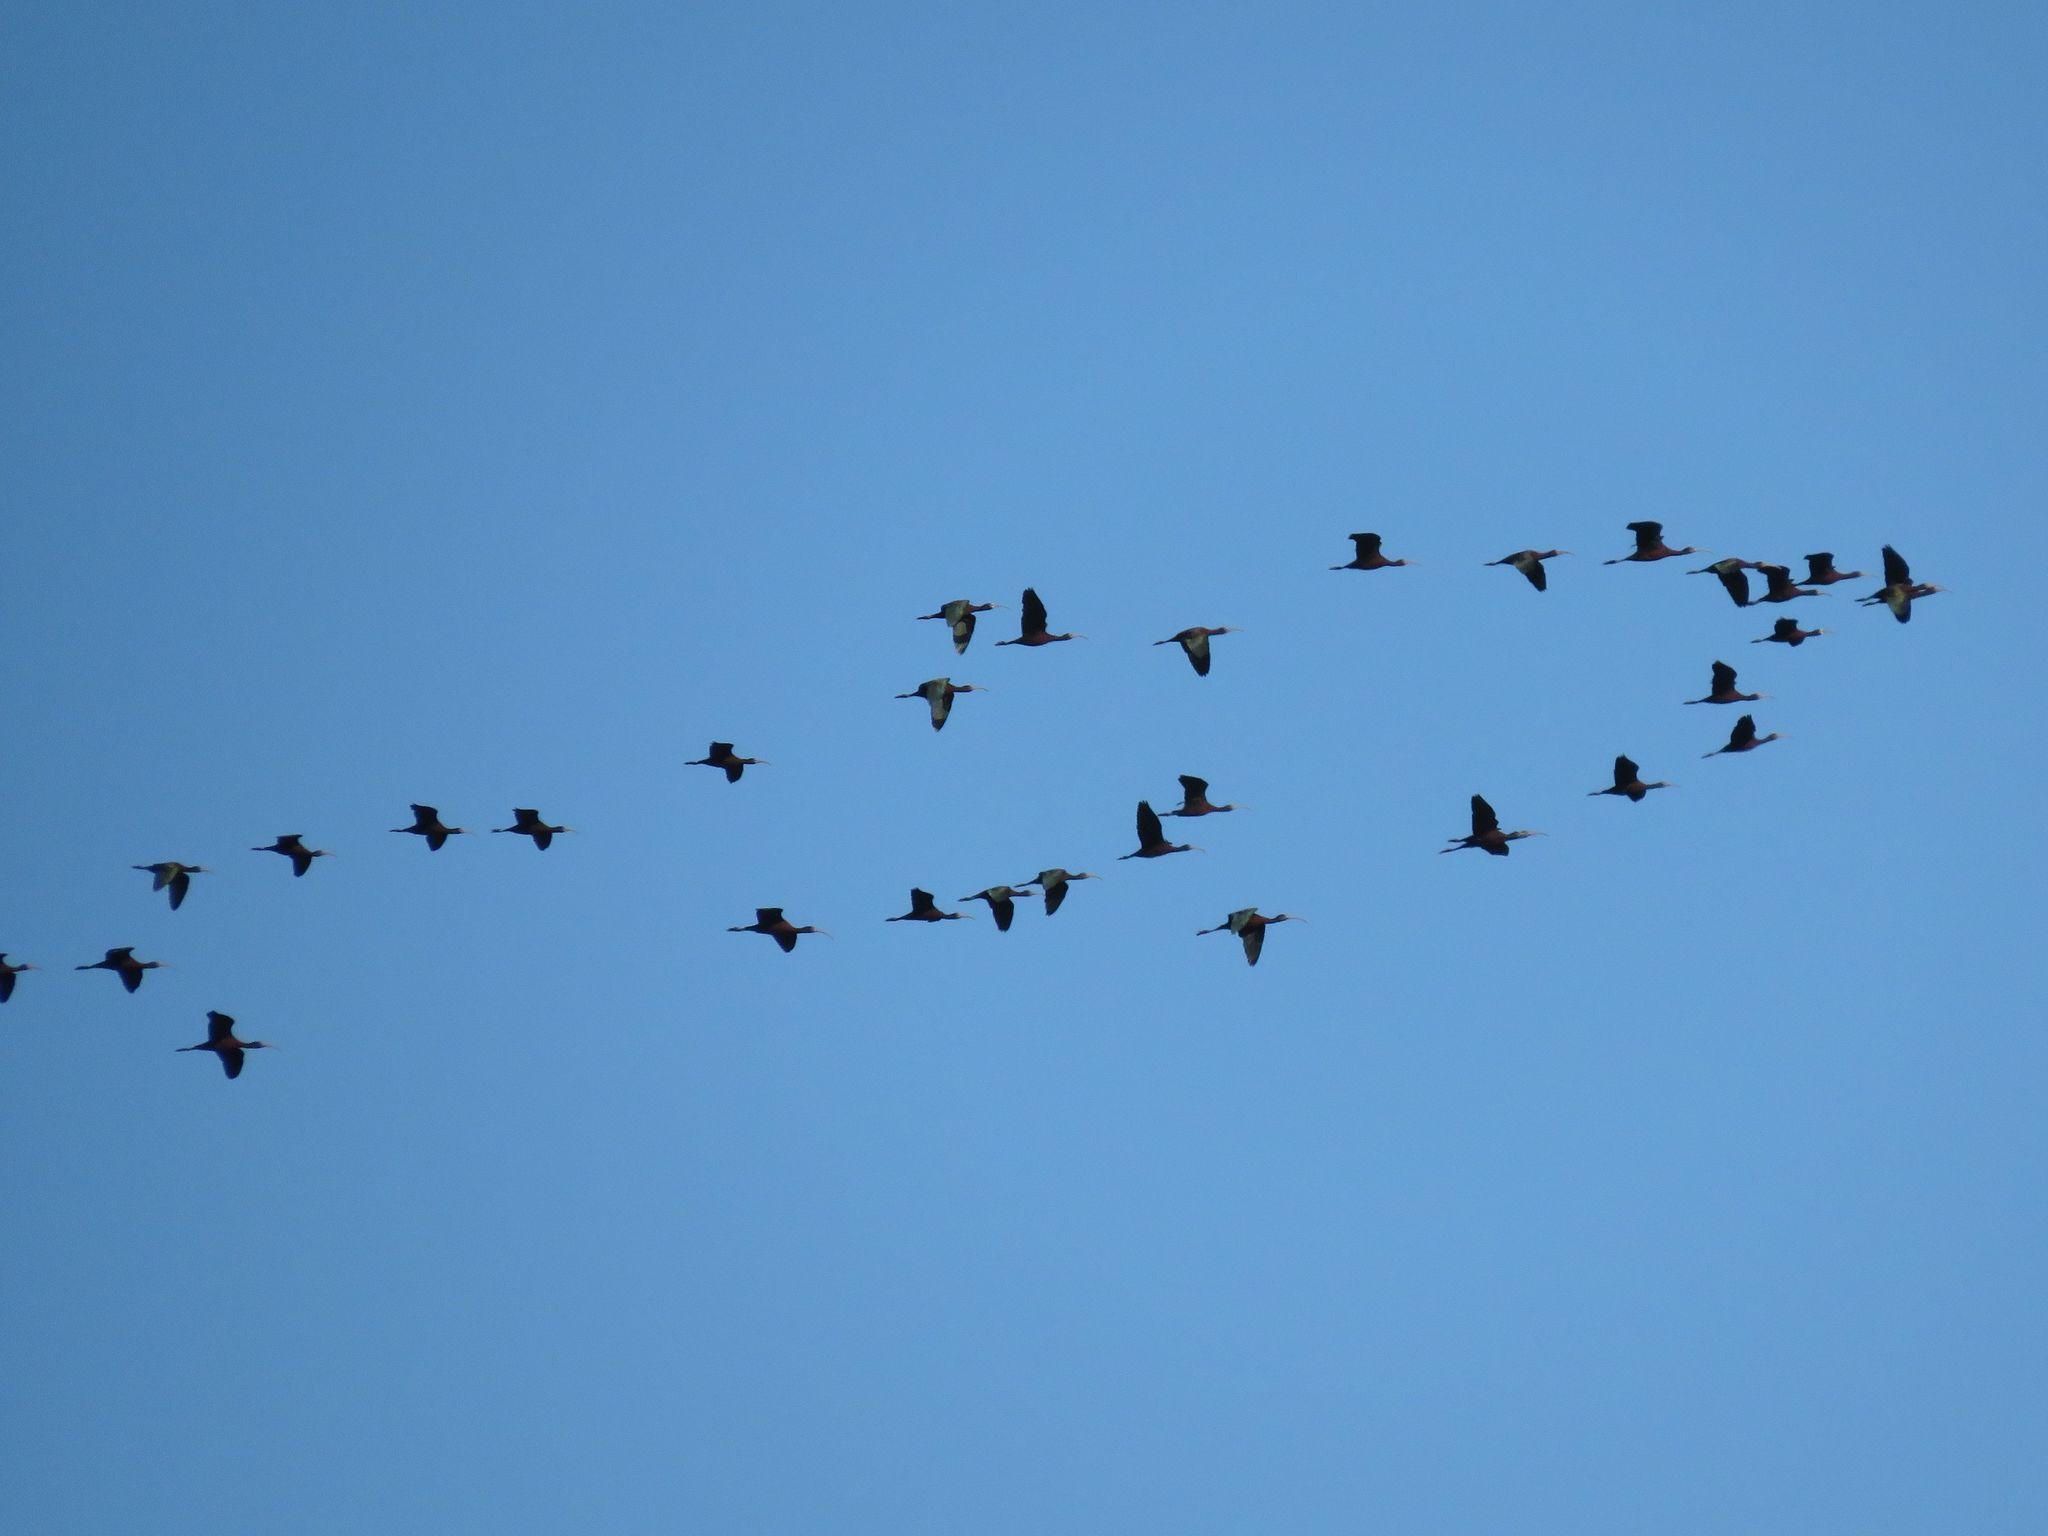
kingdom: Animalia
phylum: Chordata
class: Aves
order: Pelecaniformes
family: Threskiornithidae
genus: Plegadis
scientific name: Plegadis chihi
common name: White-faced ibis
